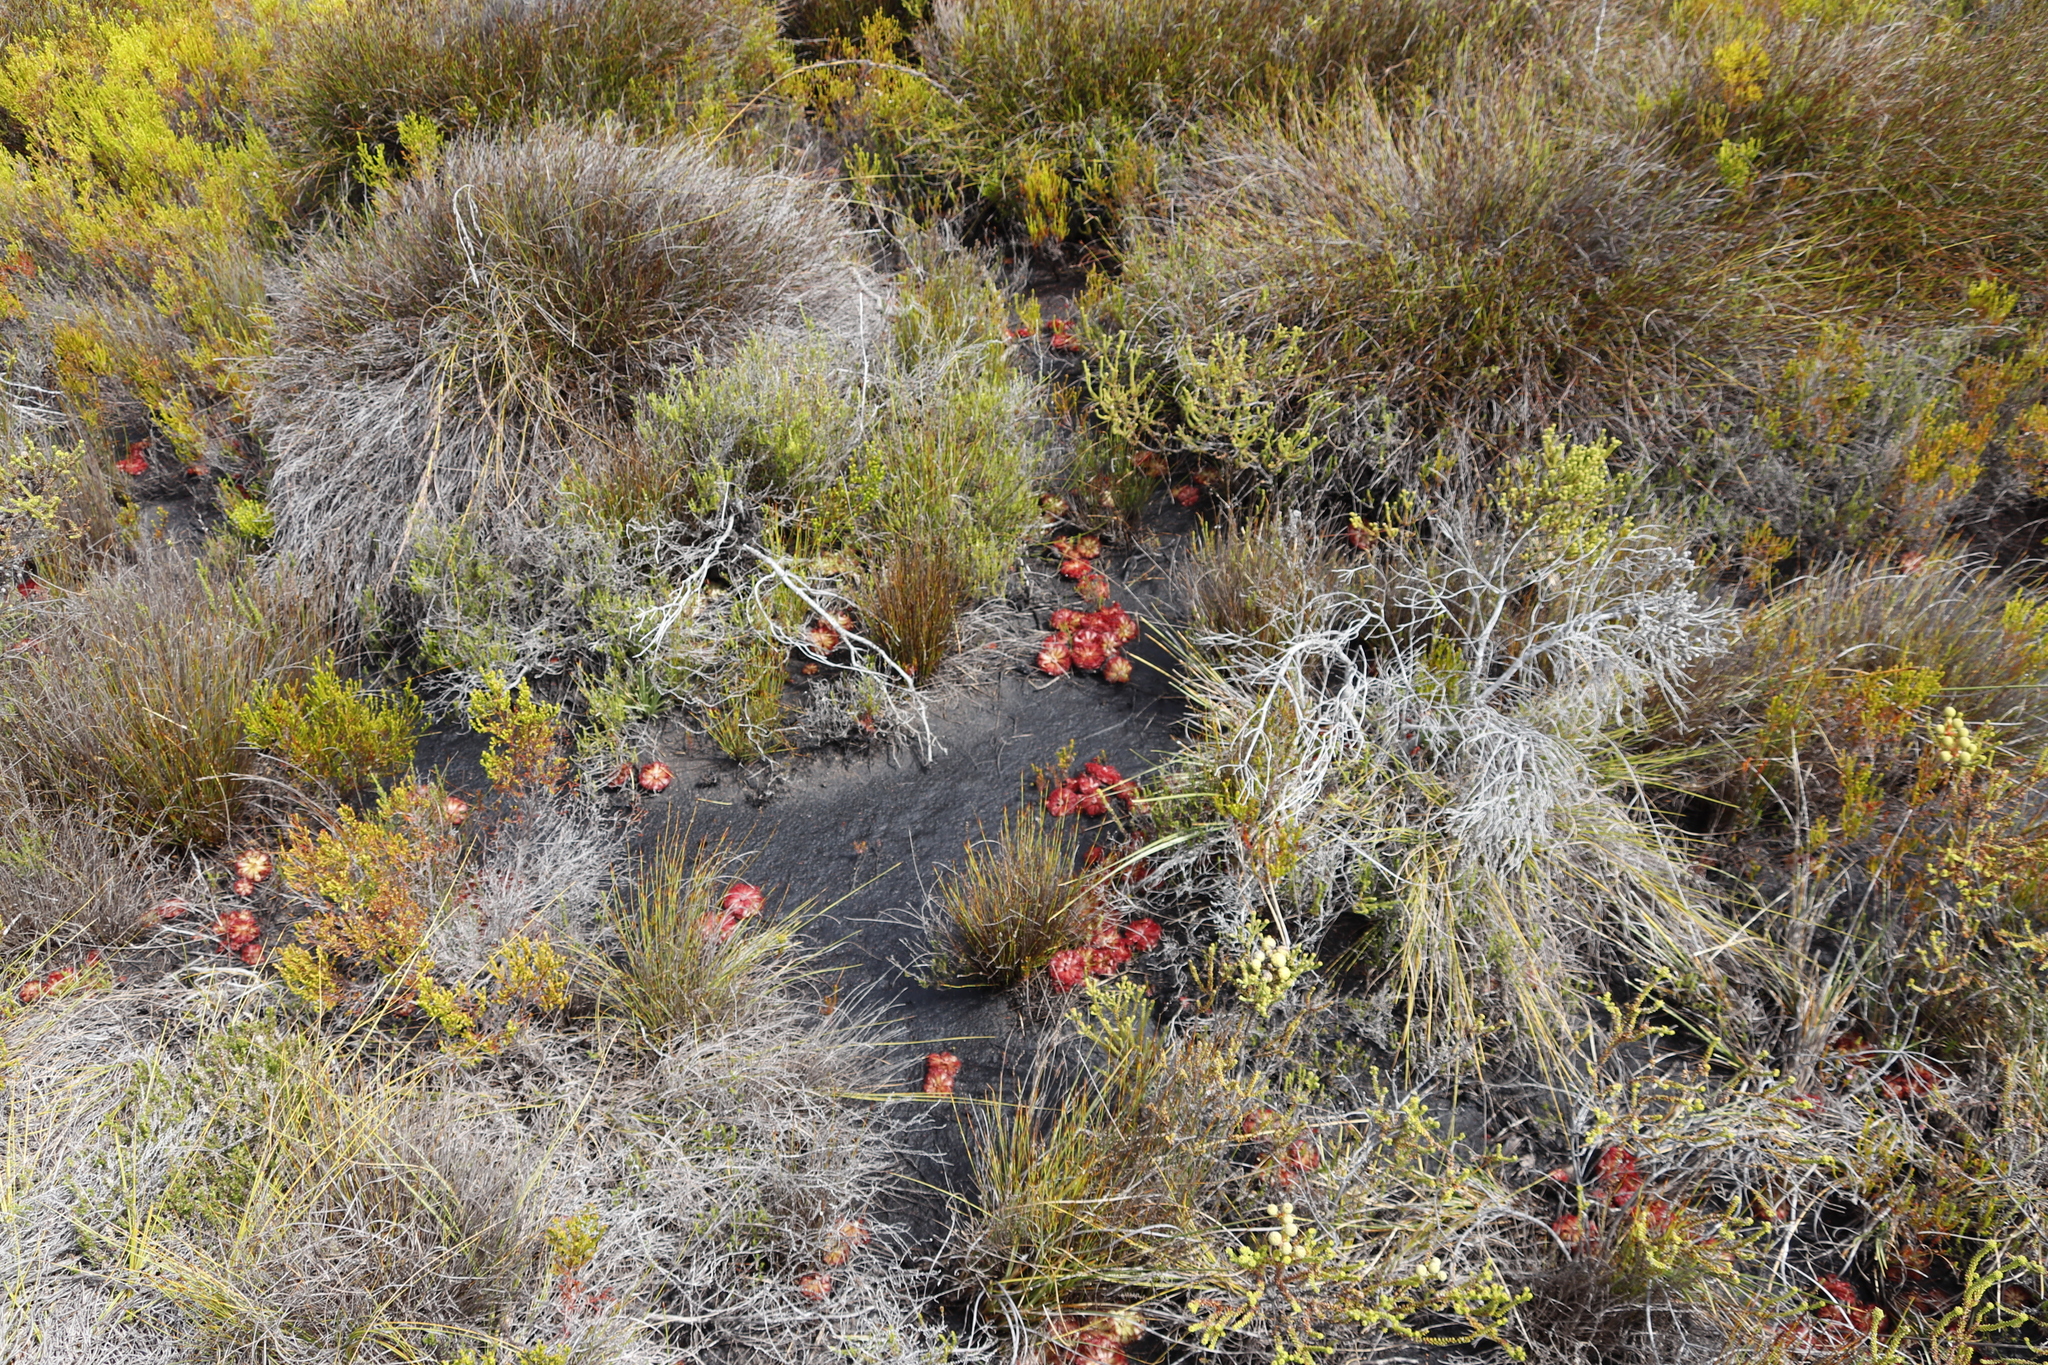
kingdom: Plantae
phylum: Tracheophyta
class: Magnoliopsida
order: Caryophyllales
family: Droseraceae
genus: Drosera
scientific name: Drosera aliciae
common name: Alice sundew
